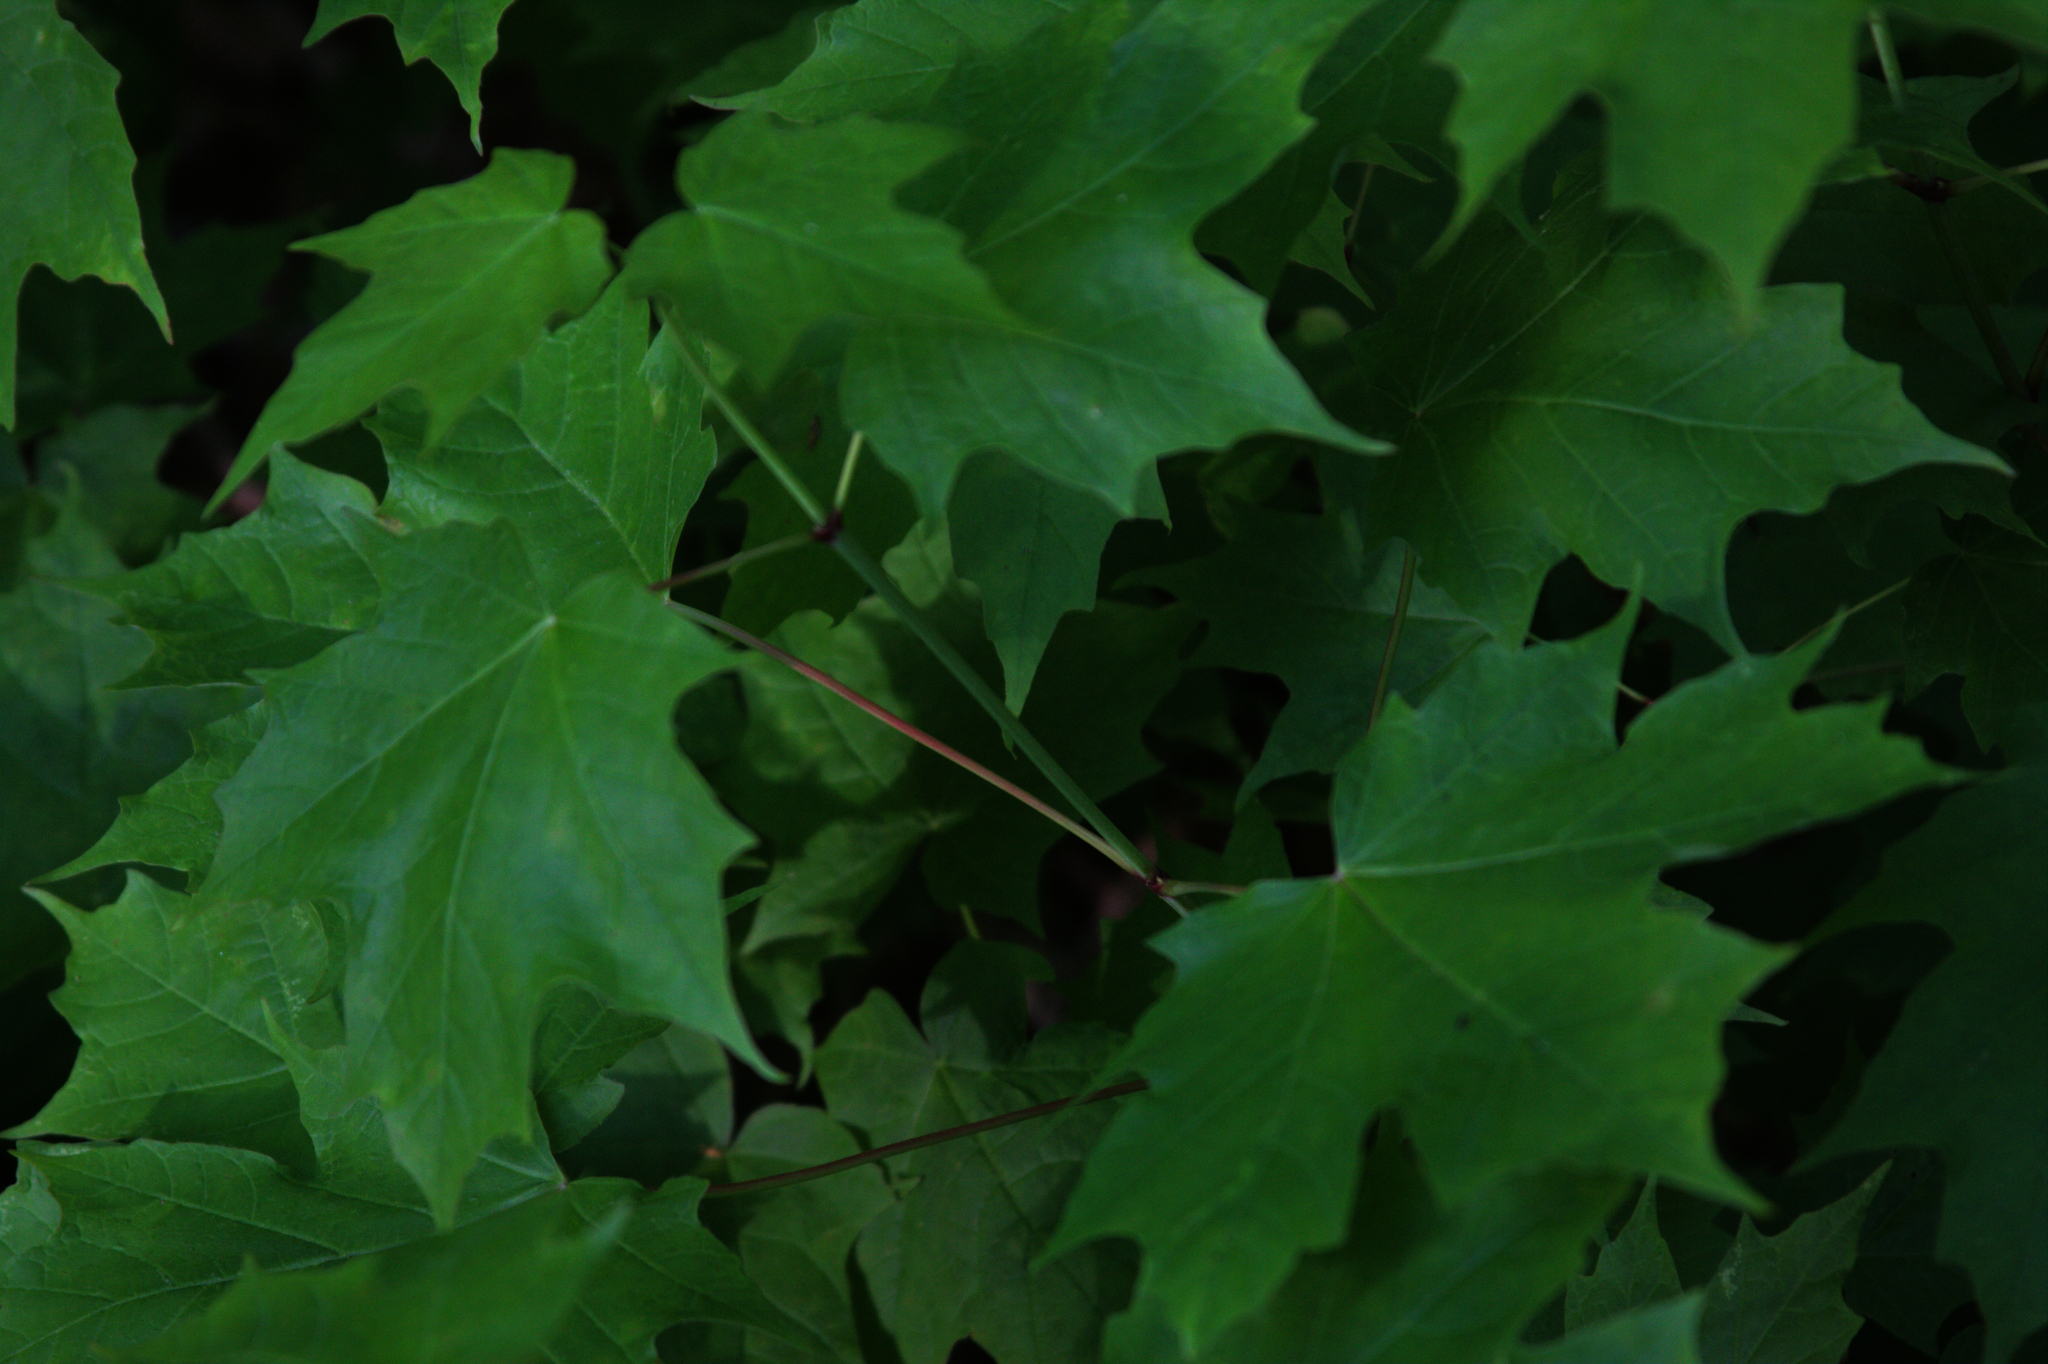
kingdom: Plantae
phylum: Tracheophyta
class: Magnoliopsida
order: Sapindales
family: Sapindaceae
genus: Acer
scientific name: Acer saccharum
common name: Sugar maple
